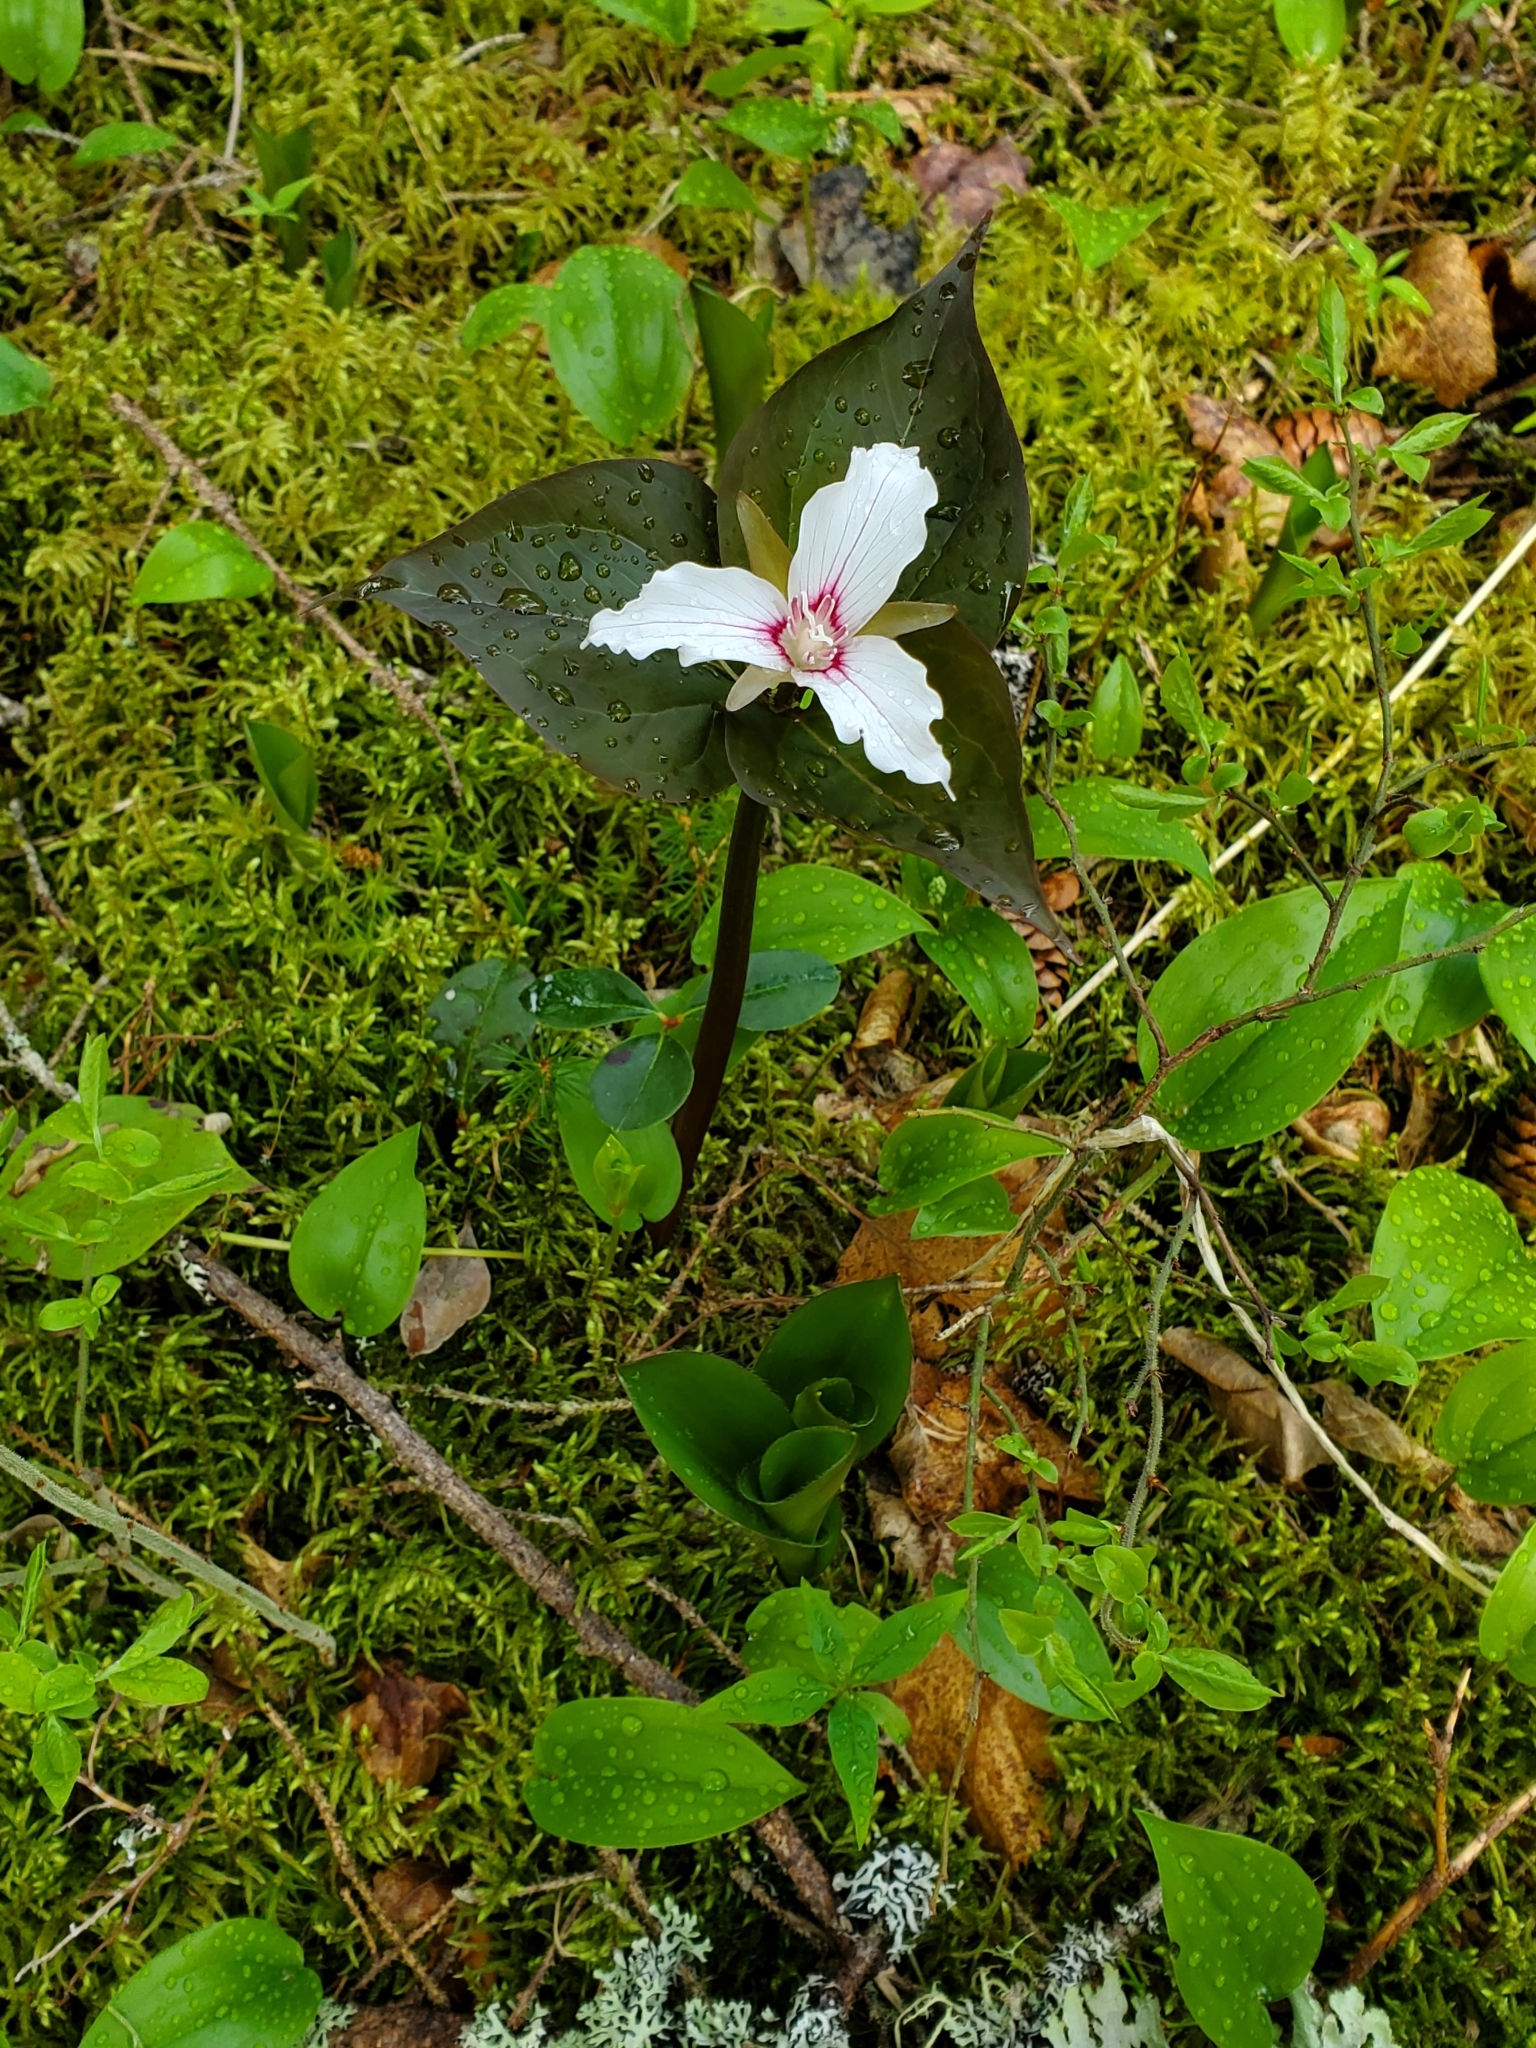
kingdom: Plantae
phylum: Tracheophyta
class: Liliopsida
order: Liliales
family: Melanthiaceae
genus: Trillium
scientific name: Trillium undulatum
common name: Paint trillium
